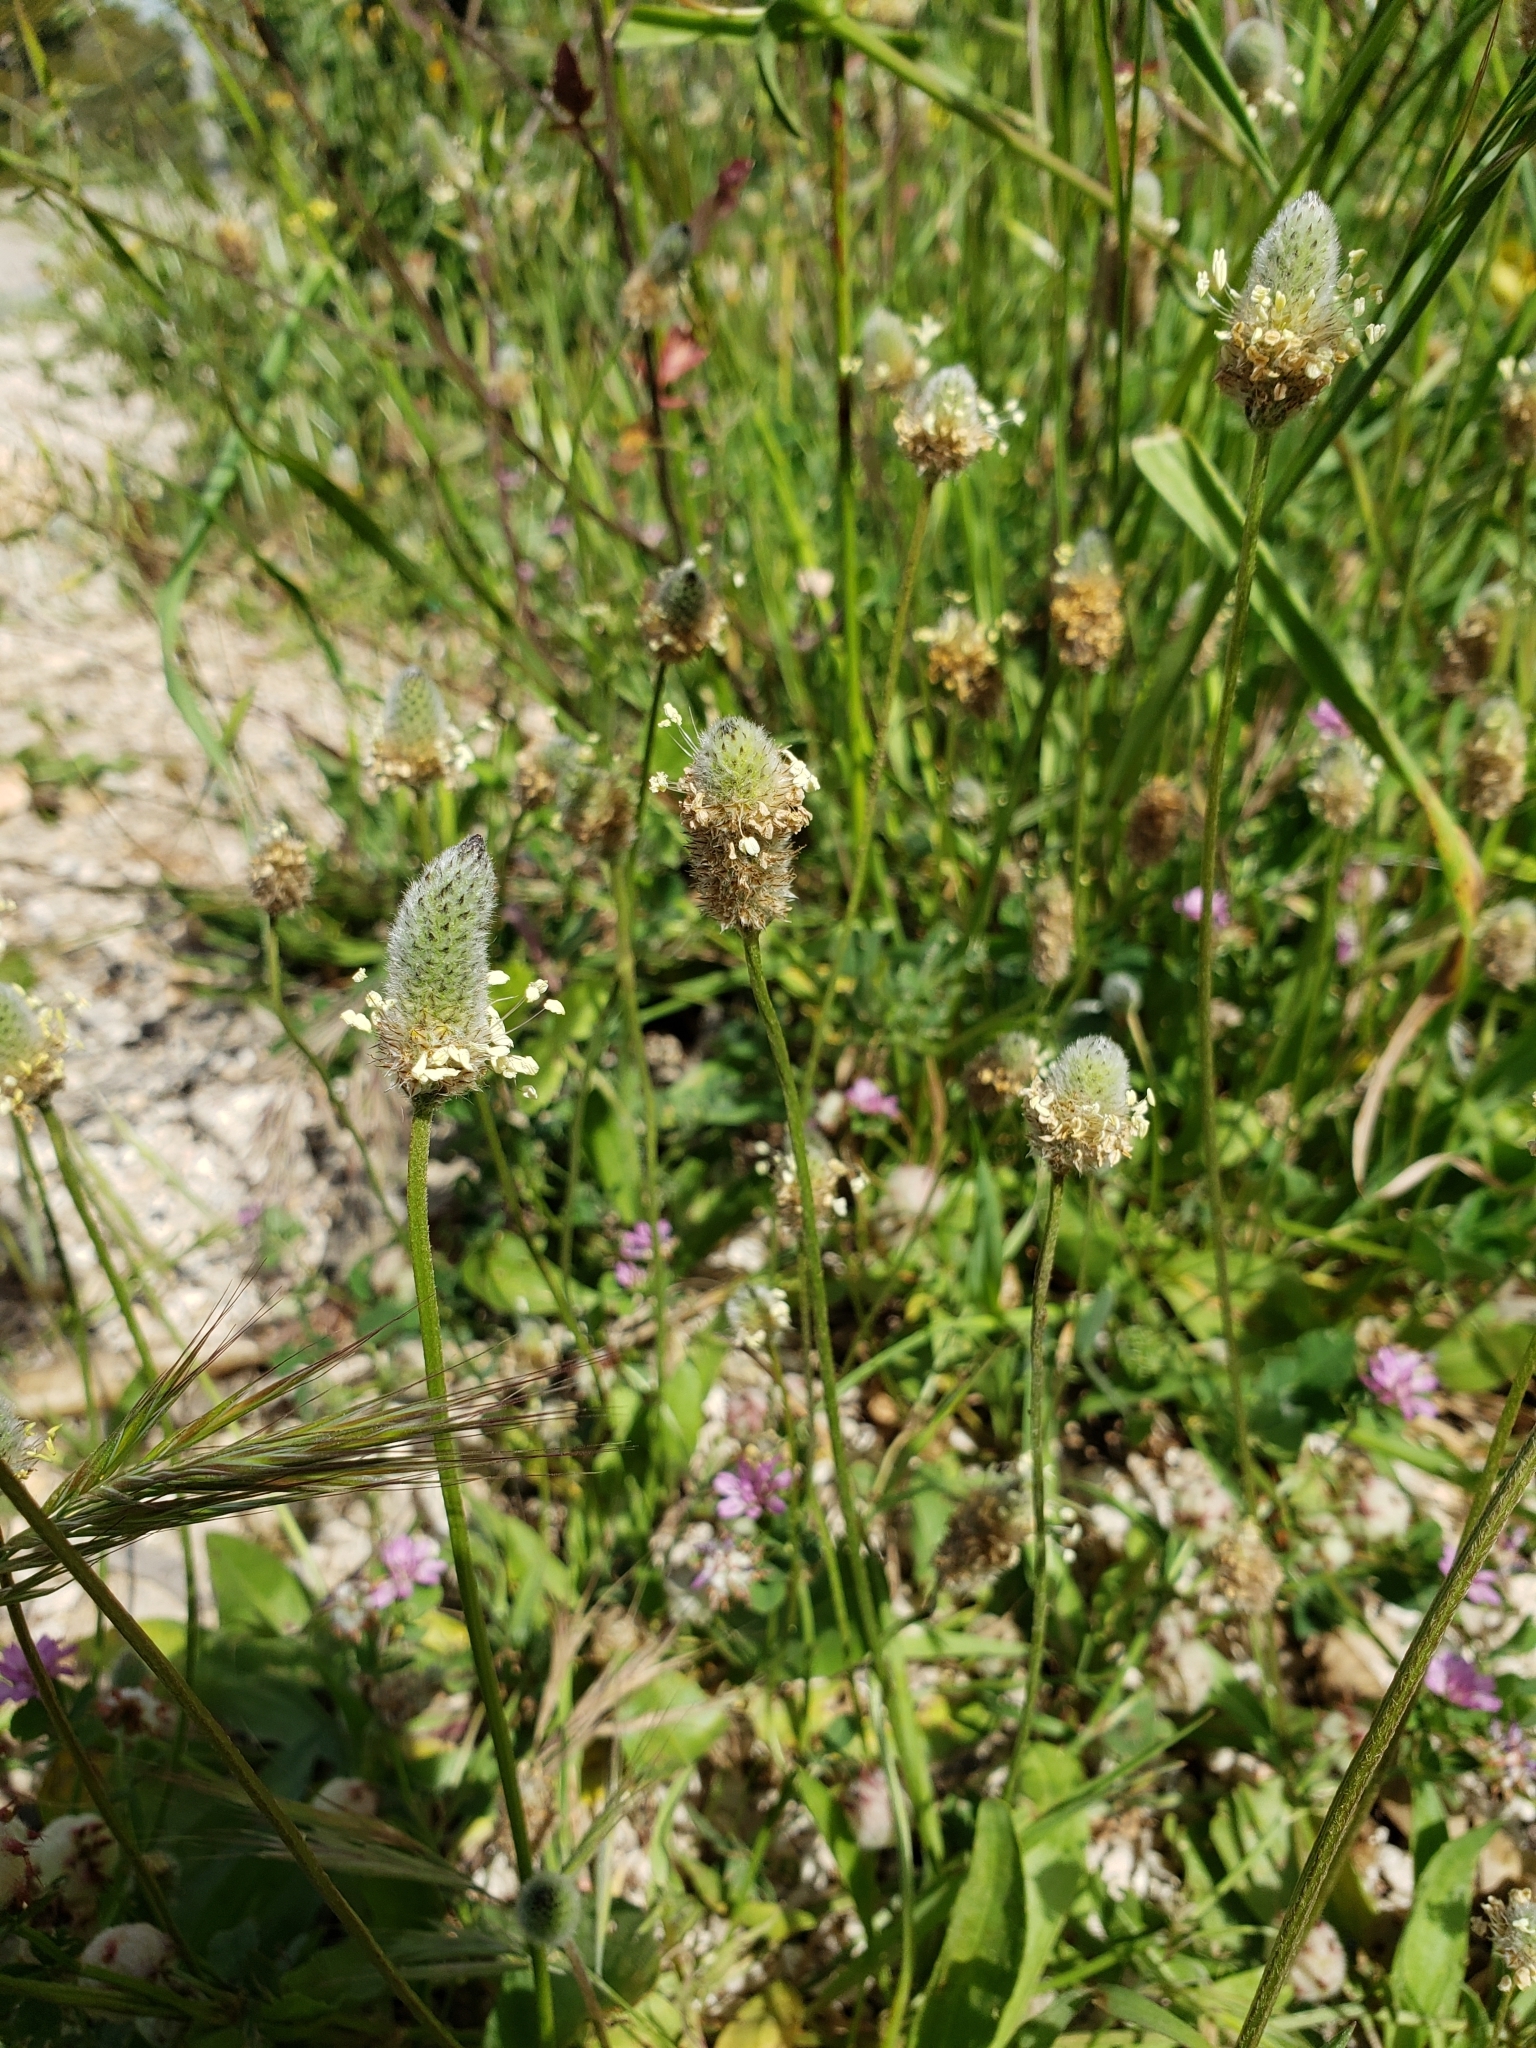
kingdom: Plantae
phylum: Tracheophyta
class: Magnoliopsida
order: Lamiales
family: Plantaginaceae
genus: Plantago
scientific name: Plantago lagopus
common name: Hare-foot plantain
